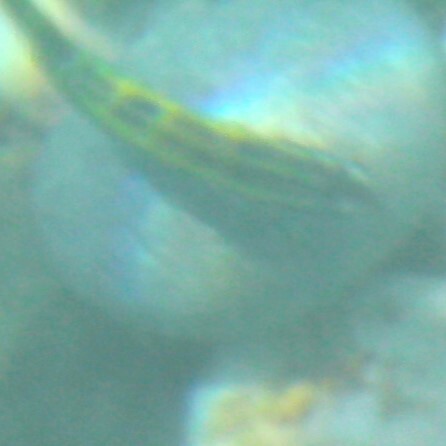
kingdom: Animalia
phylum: Chordata
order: Perciformes
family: Labridae
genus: Thalassoma
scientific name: Thalassoma pavo
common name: Ornate wrasse
